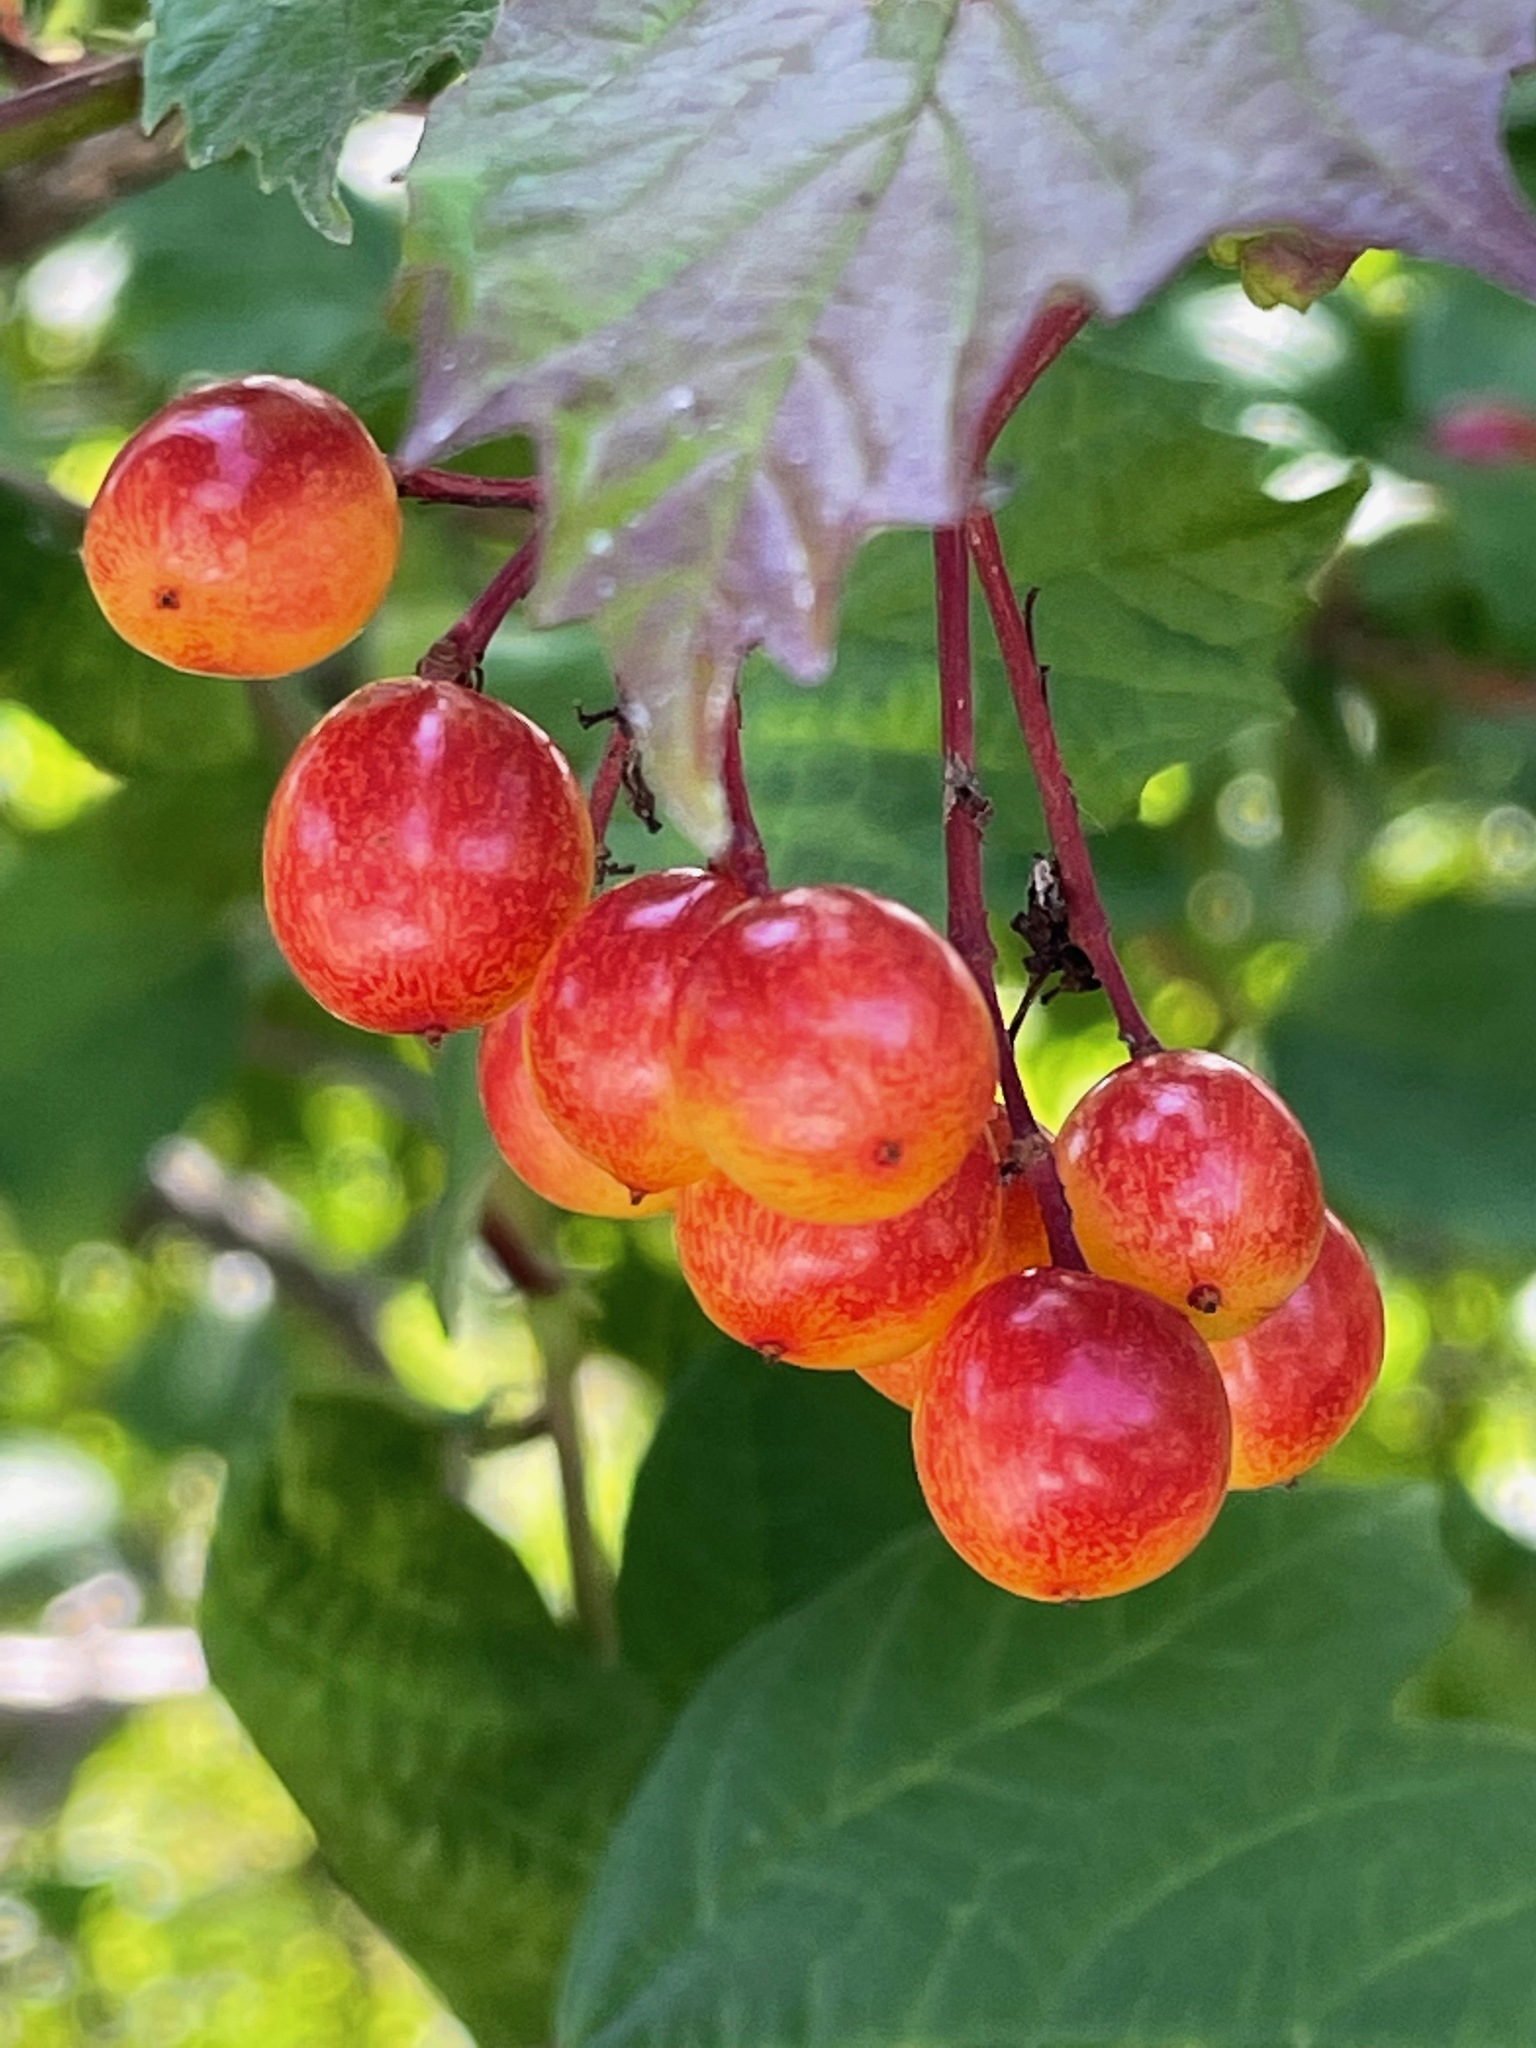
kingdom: Plantae
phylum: Tracheophyta
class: Magnoliopsida
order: Dipsacales
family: Viburnaceae
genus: Viburnum
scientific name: Viburnum opulus
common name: Guelder-rose
